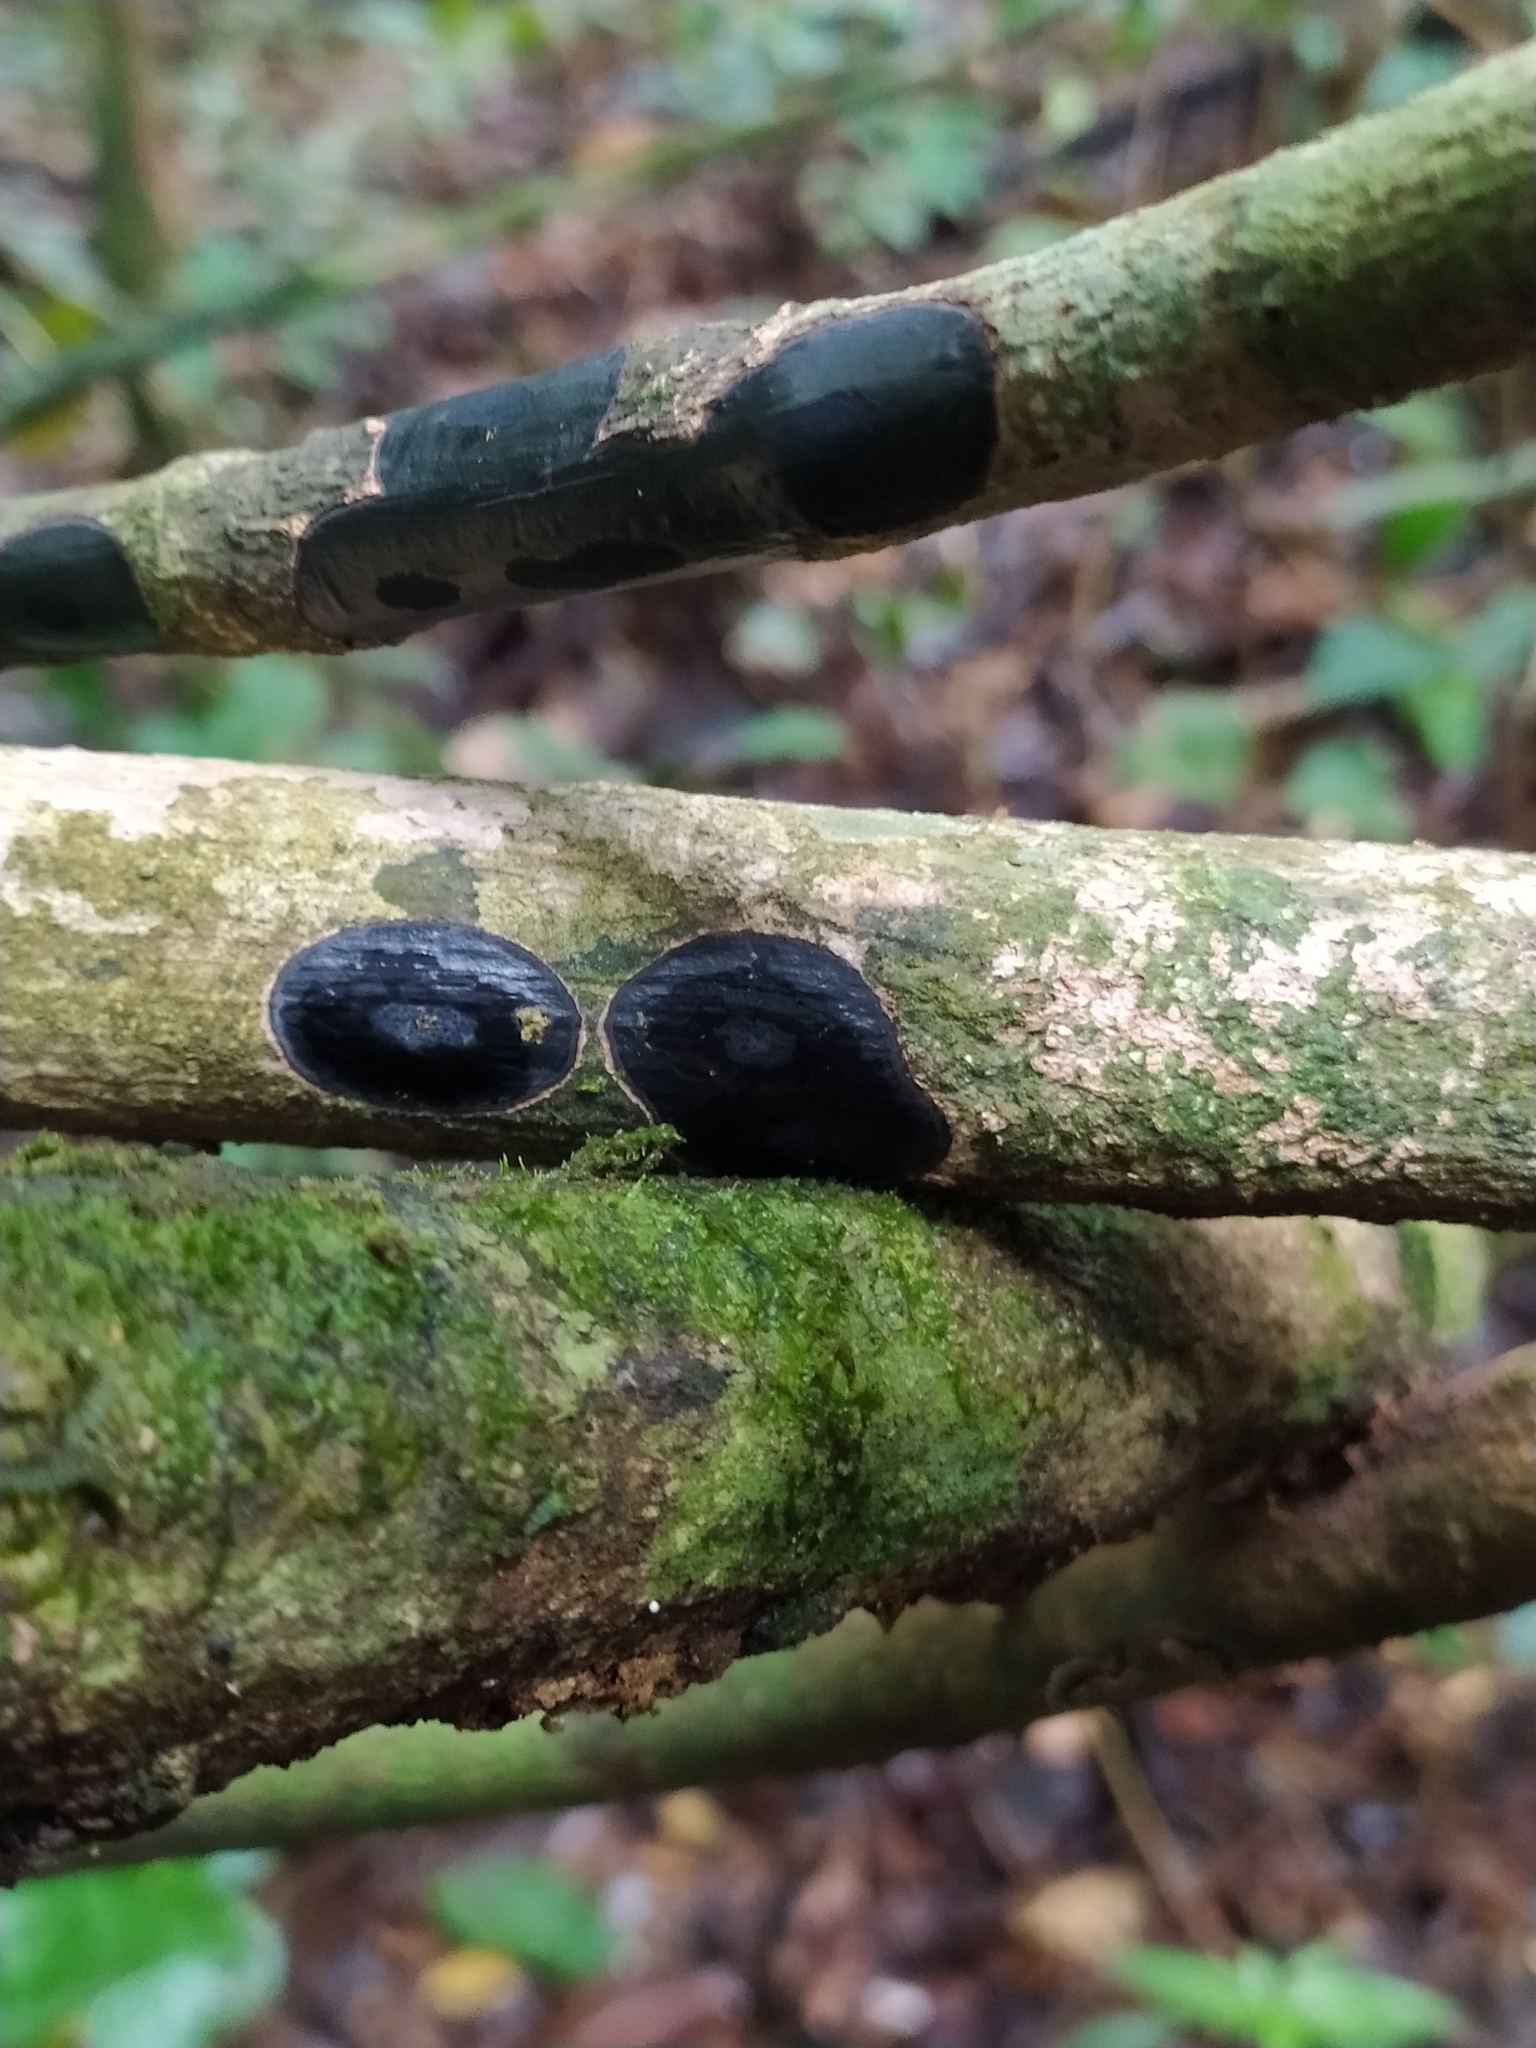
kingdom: Fungi
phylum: Ascomycota
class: Sordariomycetes
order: Xylariales
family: Graphostromataceae
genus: Camillea
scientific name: Camillea leprieurii
